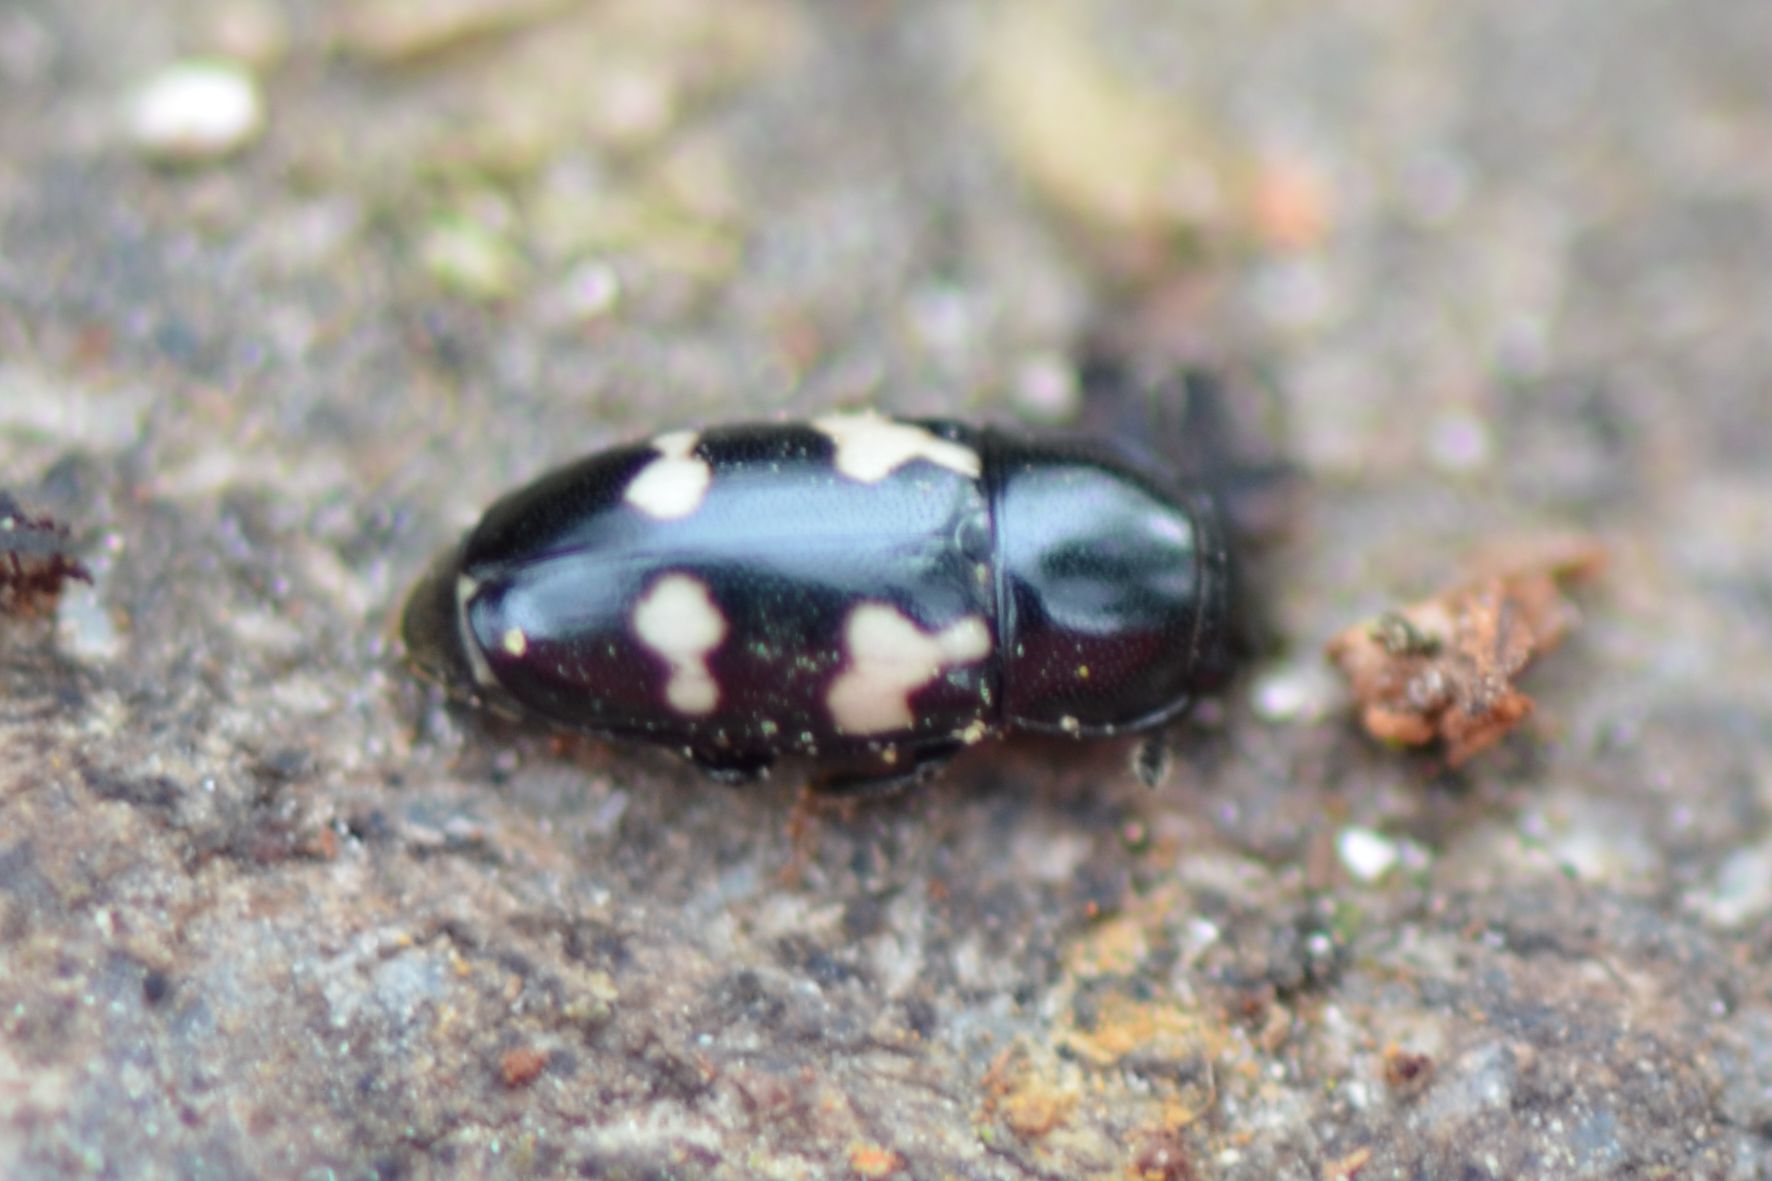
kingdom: Animalia
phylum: Arthropoda
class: Insecta
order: Coleoptera
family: Nitidulidae
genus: Glischrochilus
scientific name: Glischrochilus quadriguttatus
